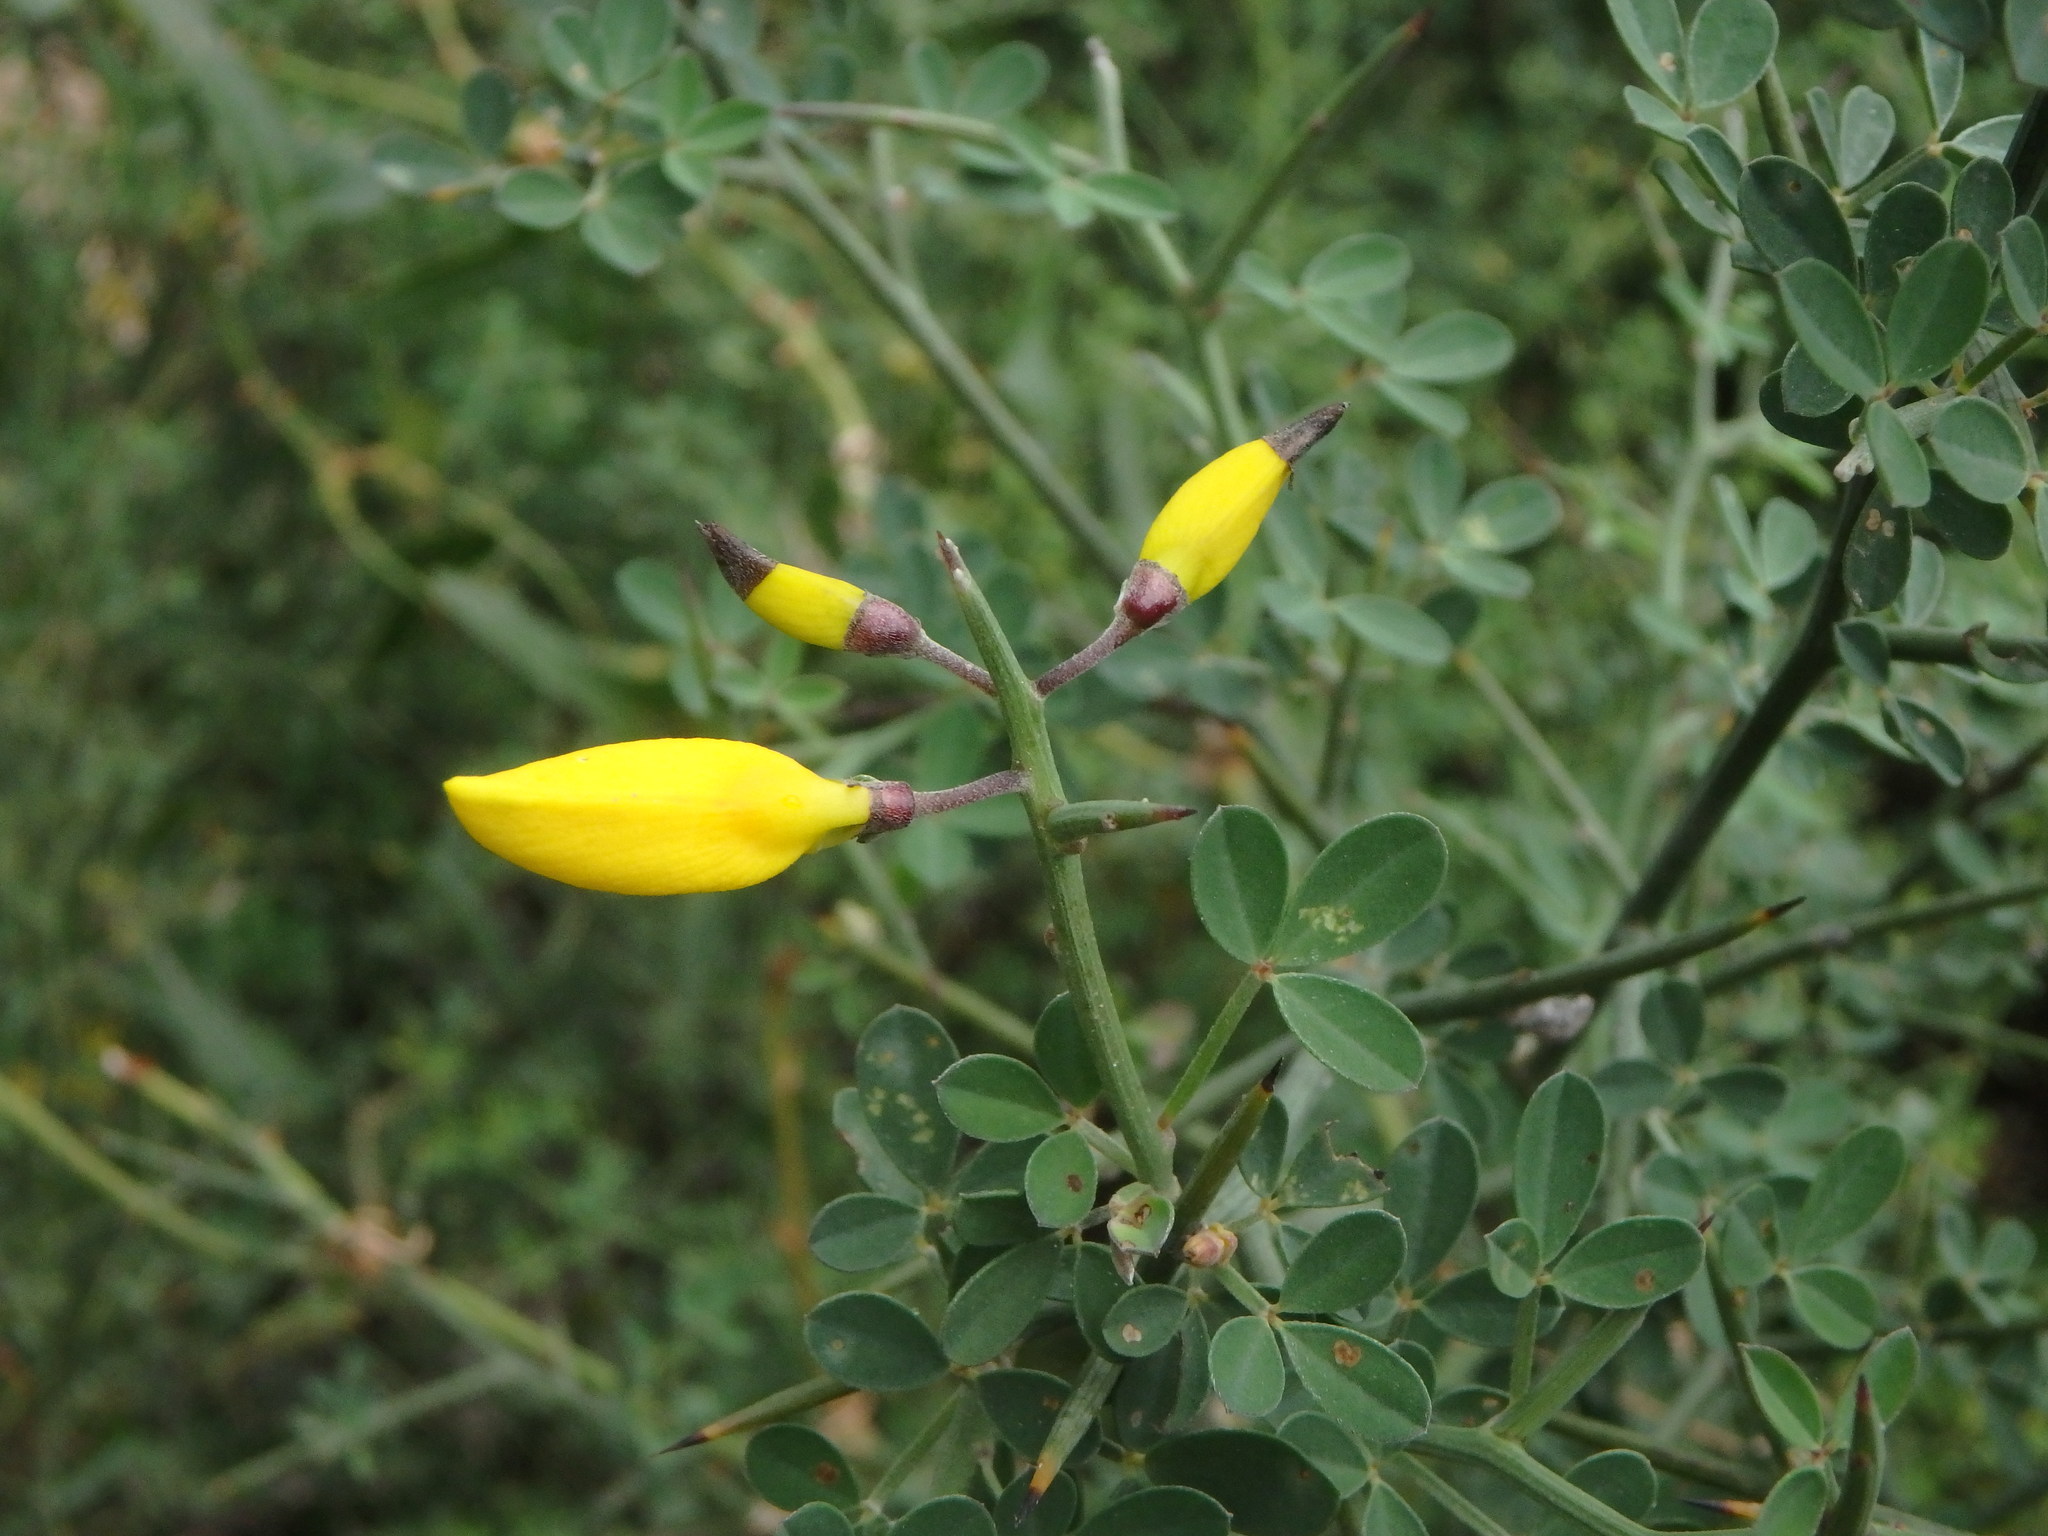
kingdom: Plantae
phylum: Tracheophyta
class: Magnoliopsida
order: Fabales
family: Fabaceae
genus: Calicotome
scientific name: Calicotome spinosa
